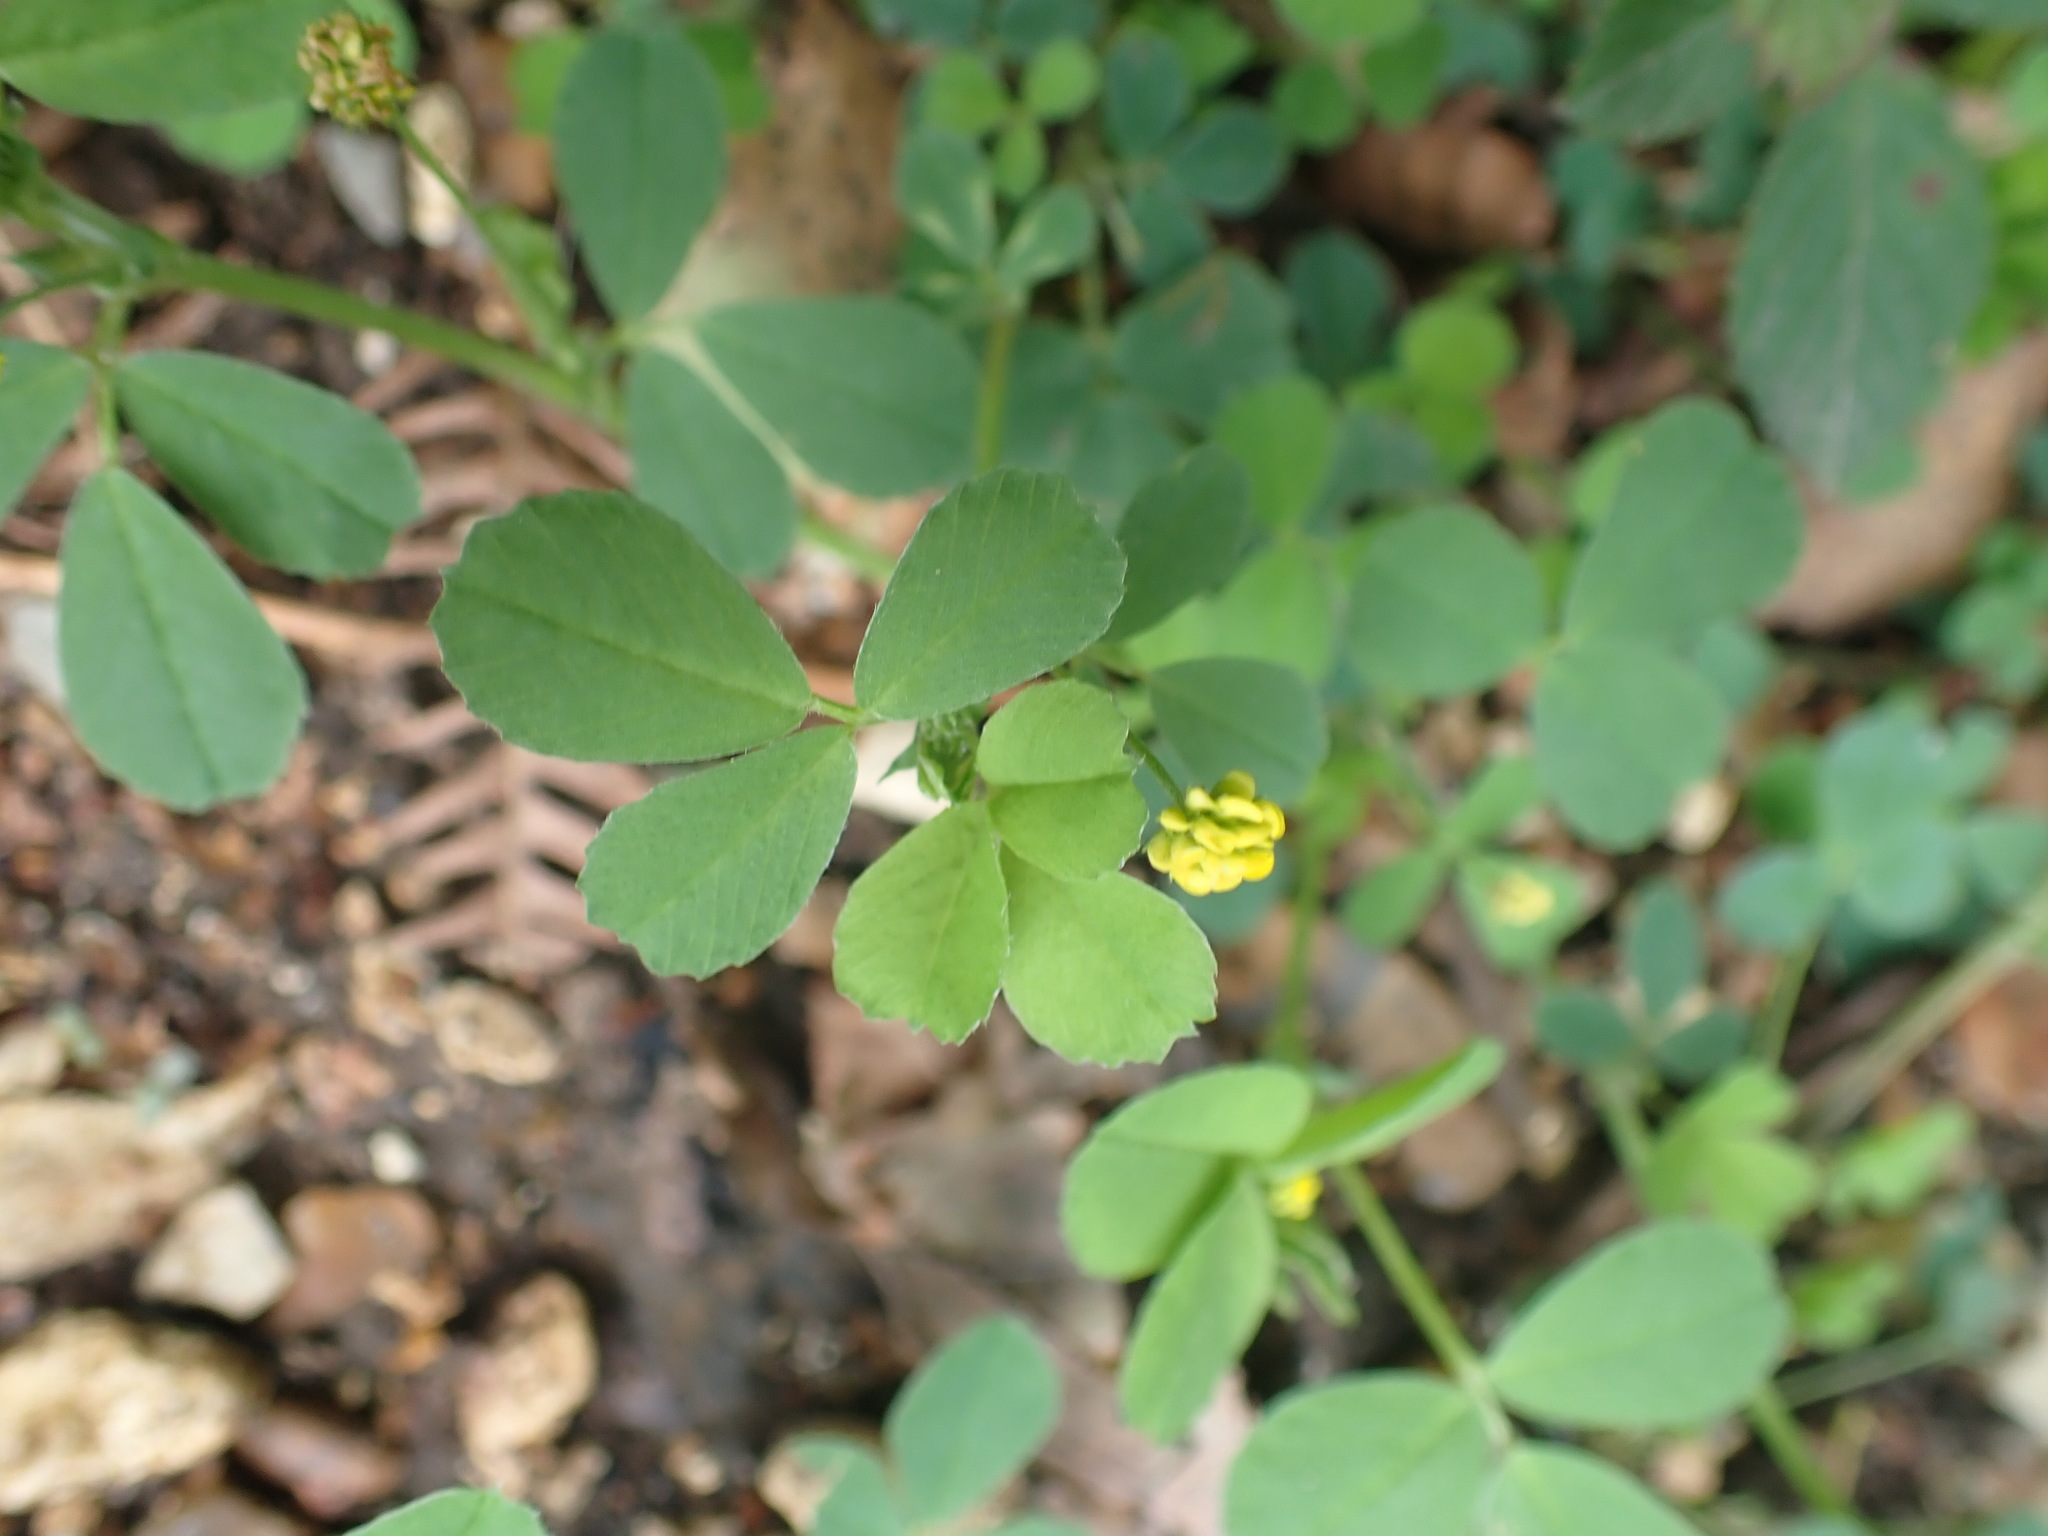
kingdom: Plantae
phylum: Tracheophyta
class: Magnoliopsida
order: Fabales
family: Fabaceae
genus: Medicago
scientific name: Medicago lupulina
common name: Black medick
